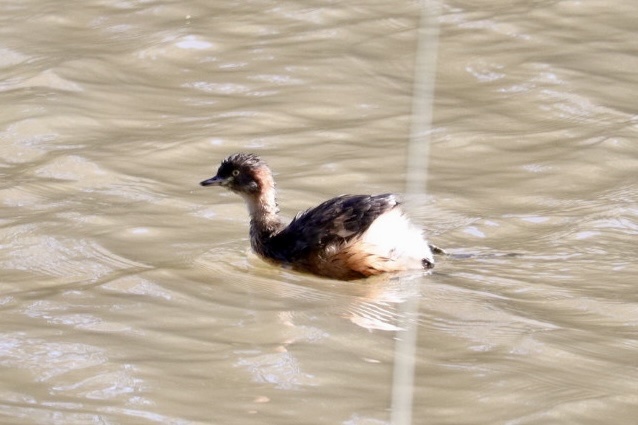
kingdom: Animalia
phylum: Chordata
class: Aves
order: Podicipediformes
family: Podicipedidae
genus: Tachybaptus
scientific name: Tachybaptus novaehollandiae
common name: Australasian grebe
